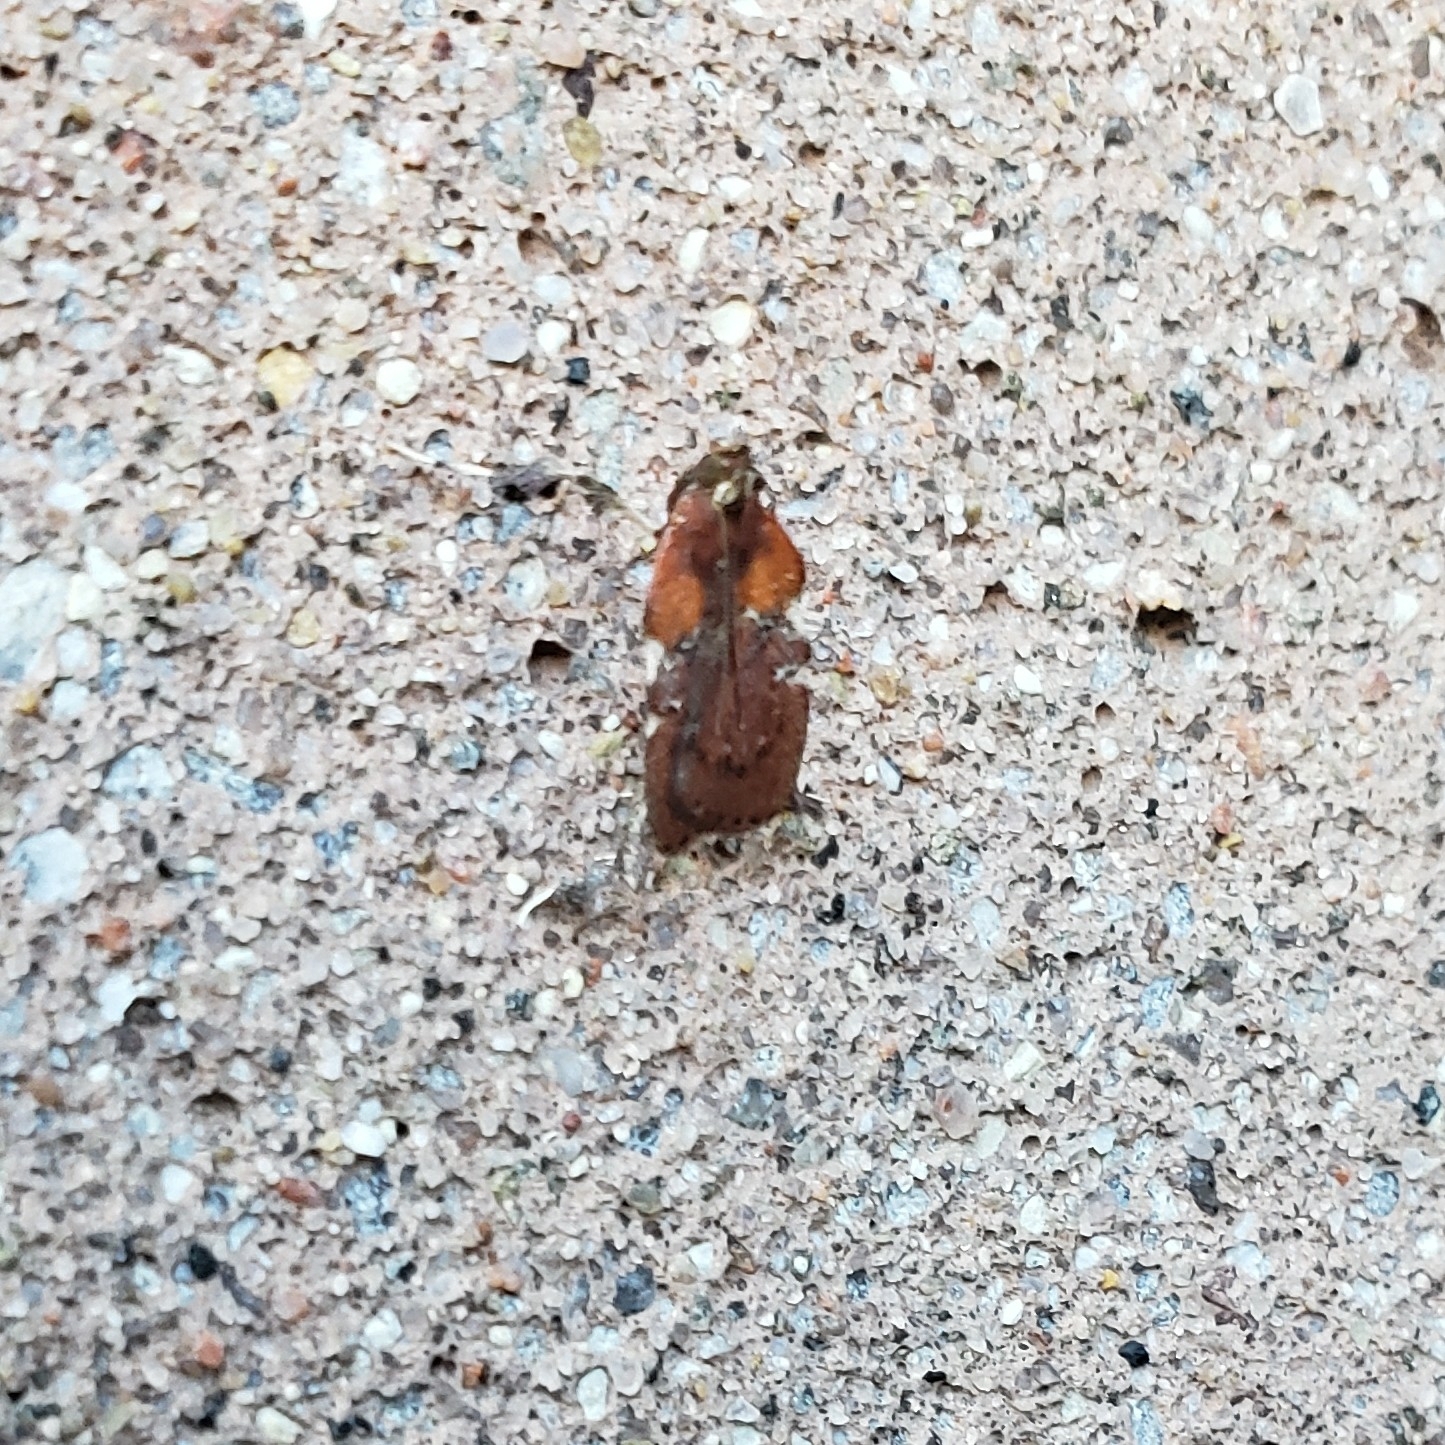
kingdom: Animalia
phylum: Arthropoda
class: Insecta
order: Lepidoptera
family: Pyralidae
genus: Galasa
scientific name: Galasa nigrinodis
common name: Boxwood leaftier moth
